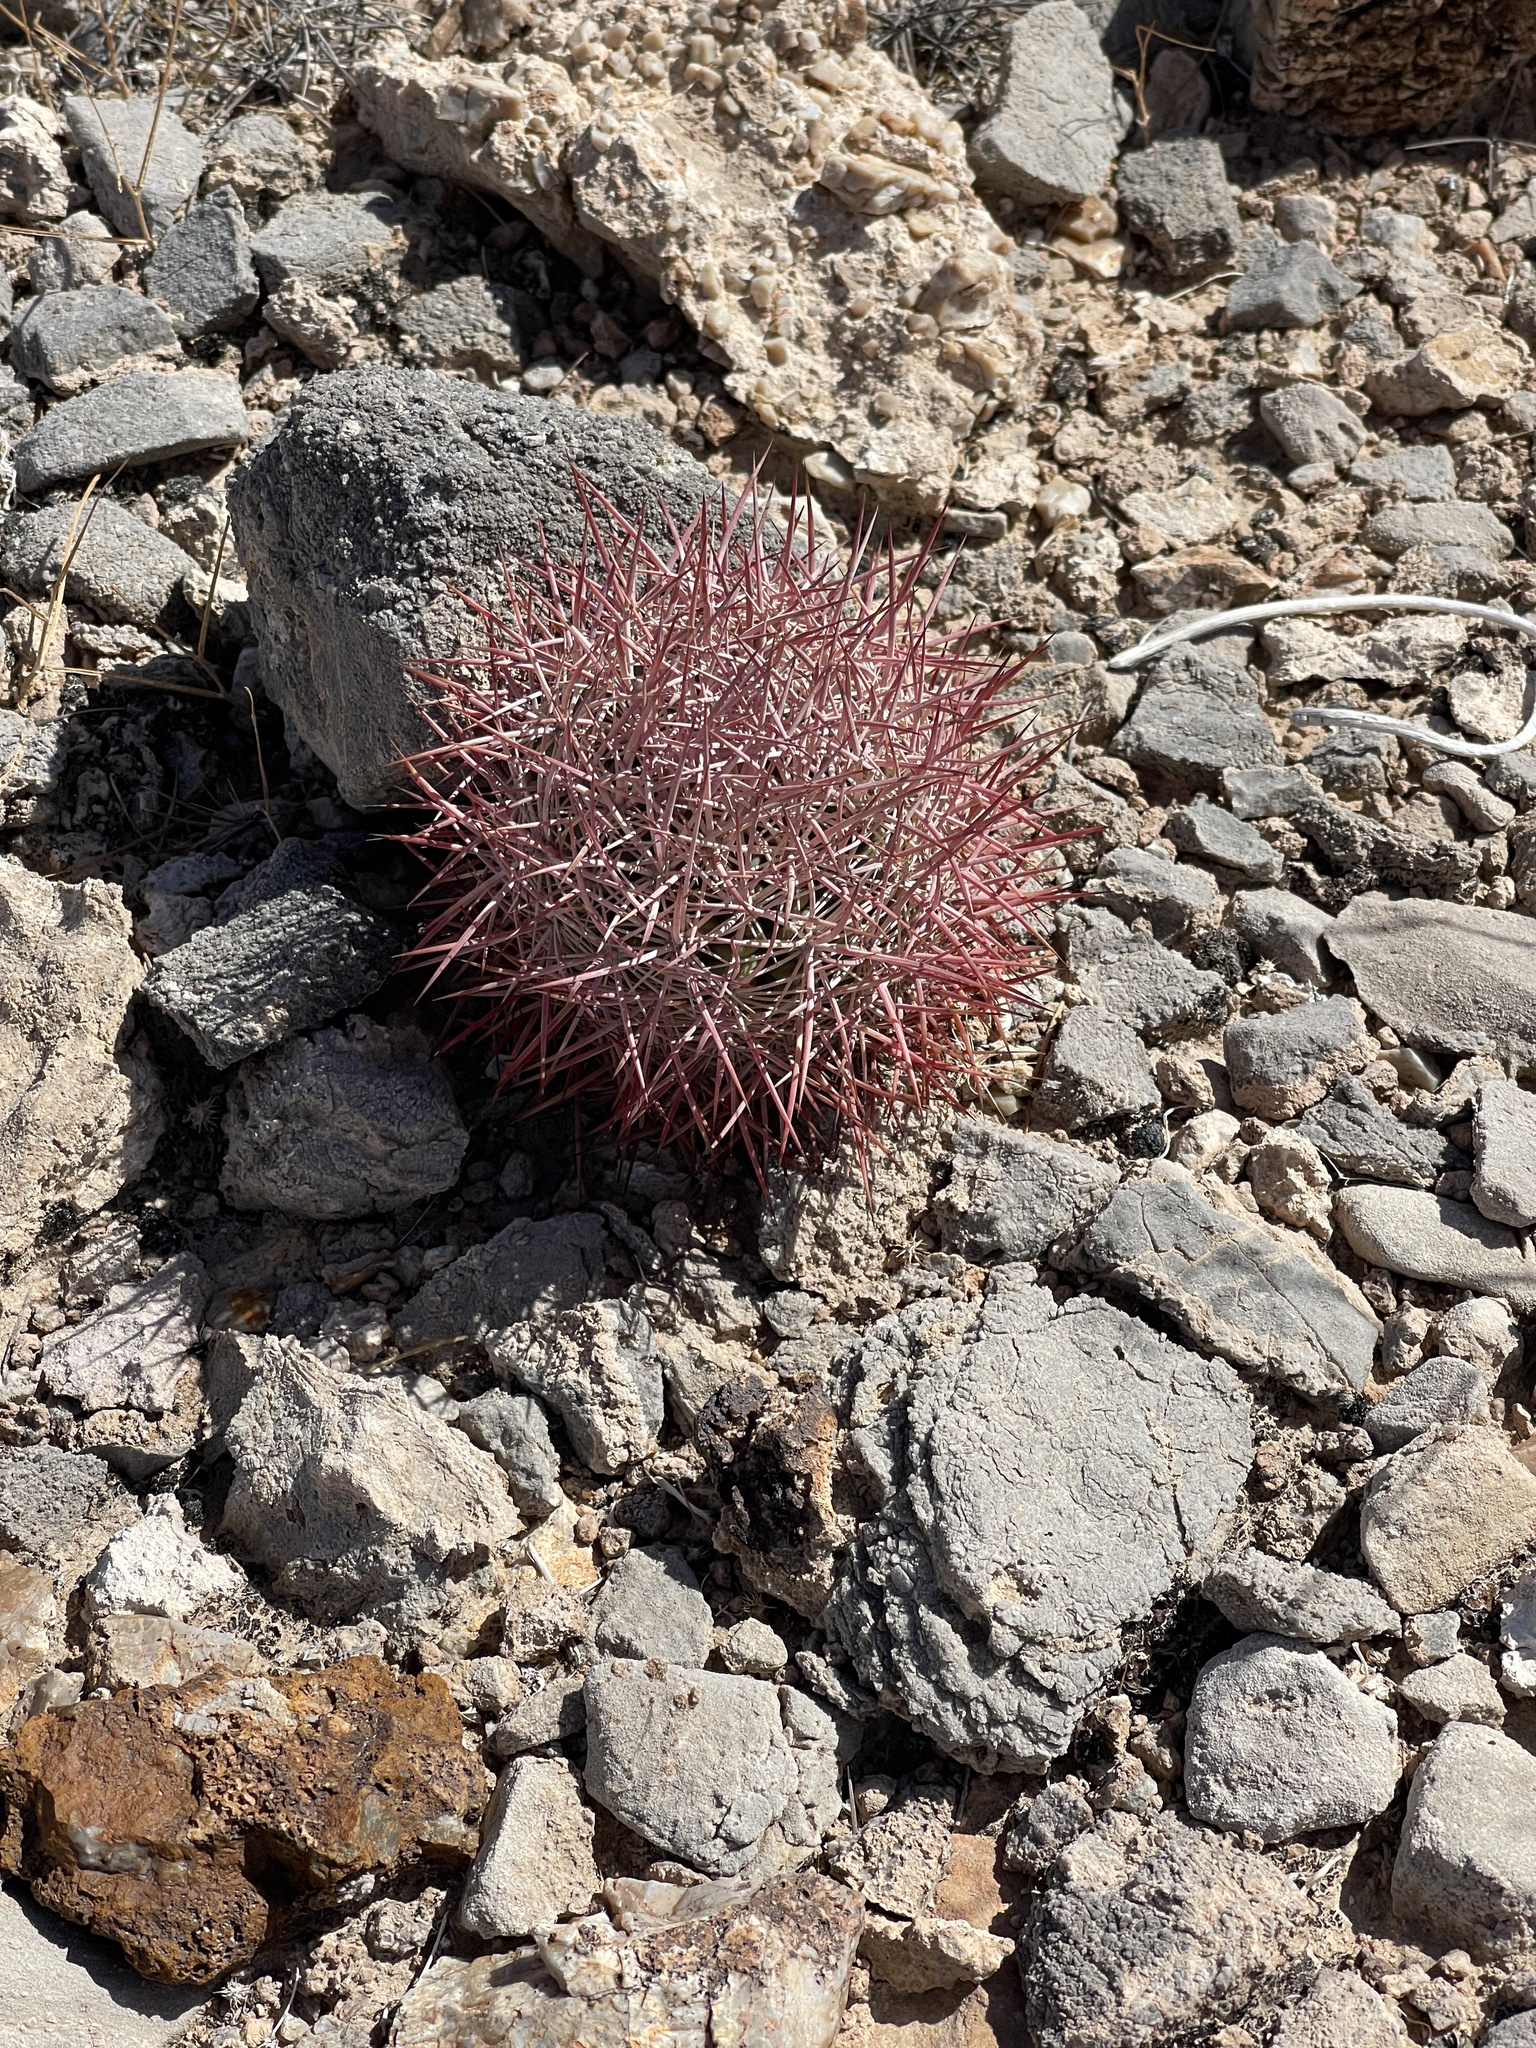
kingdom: Plantae
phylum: Tracheophyta
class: Magnoliopsida
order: Caryophyllales
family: Cactaceae
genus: Sclerocactus
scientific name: Sclerocactus johnsonii
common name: Eight-spine fishhook cactus
